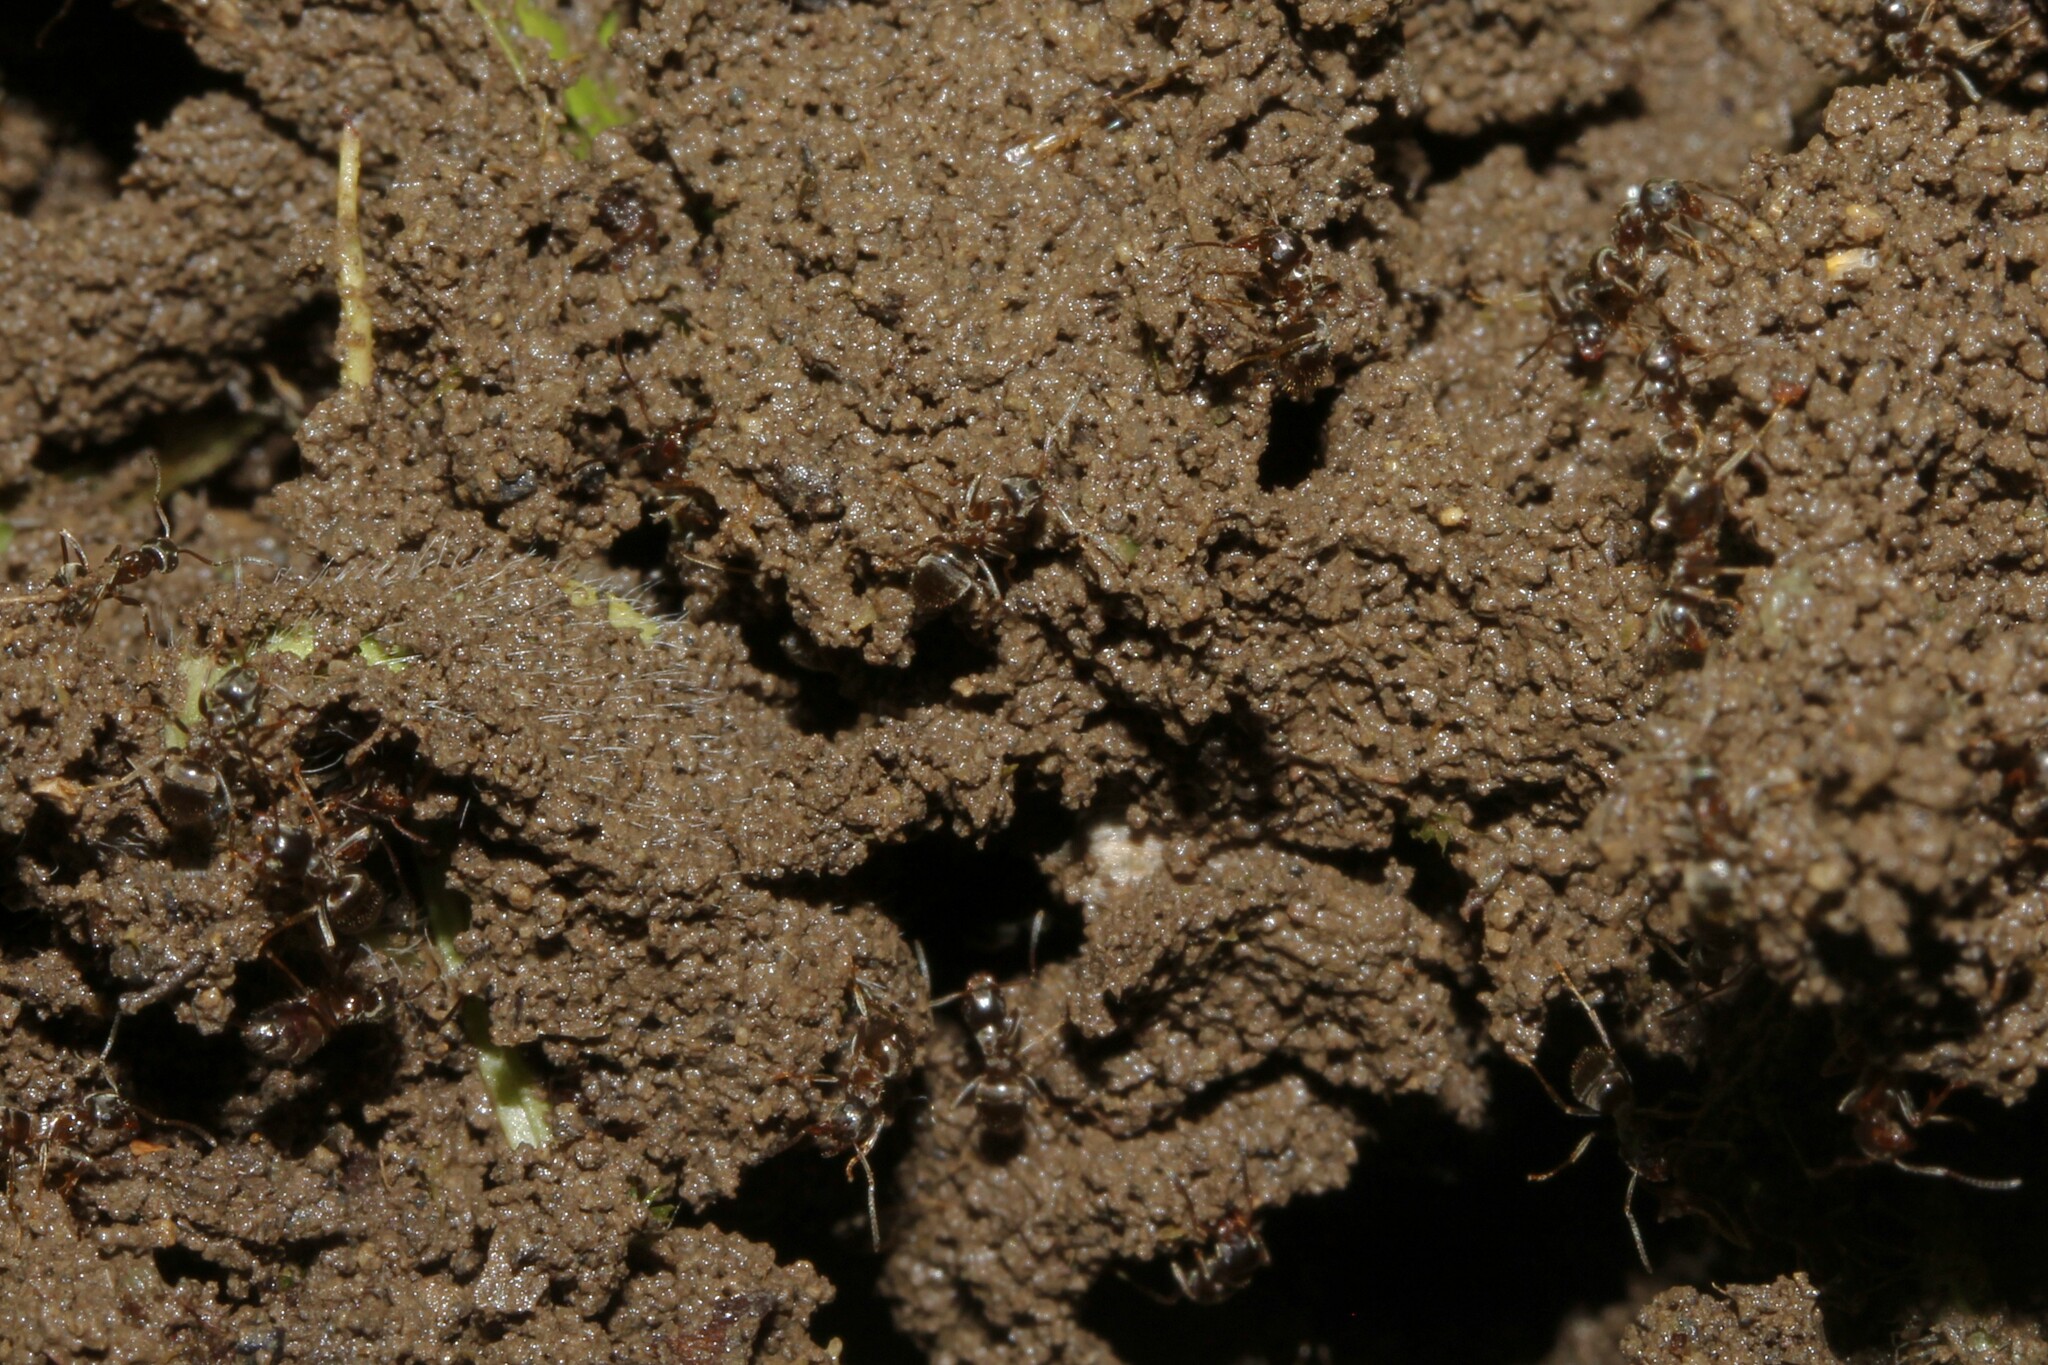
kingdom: Animalia
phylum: Arthropoda
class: Insecta
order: Hymenoptera
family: Formicidae
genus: Lasius
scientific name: Lasius
